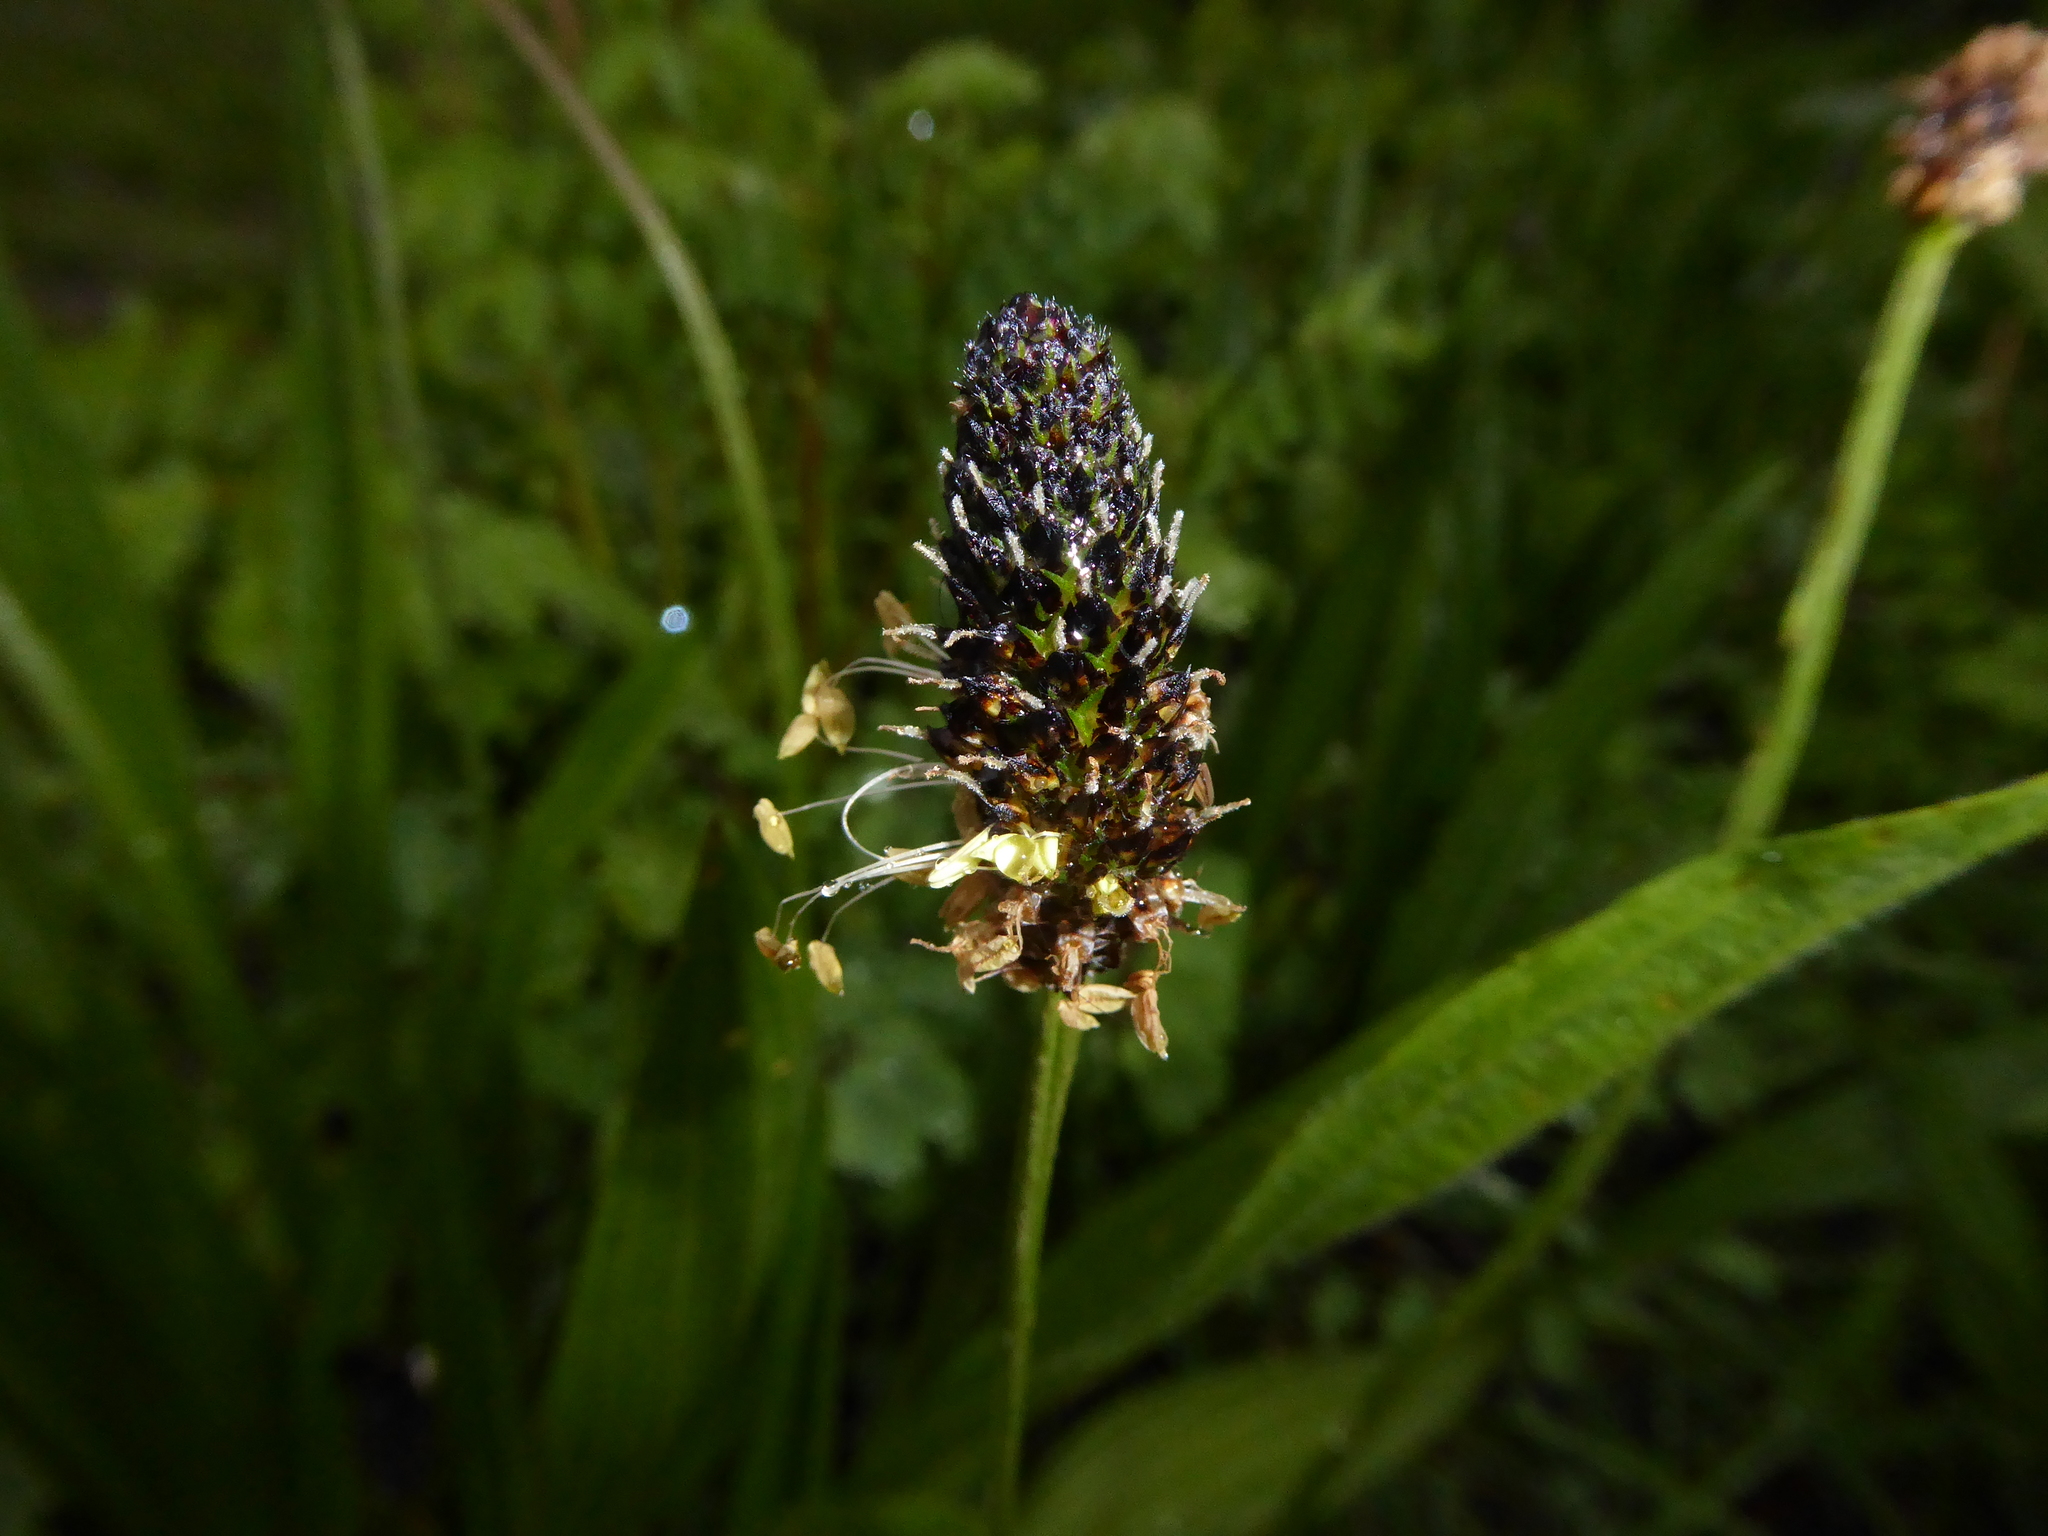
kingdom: Plantae
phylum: Tracheophyta
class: Magnoliopsida
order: Lamiales
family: Plantaginaceae
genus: Plantago
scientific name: Plantago lanceolata
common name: Ribwort plantain
